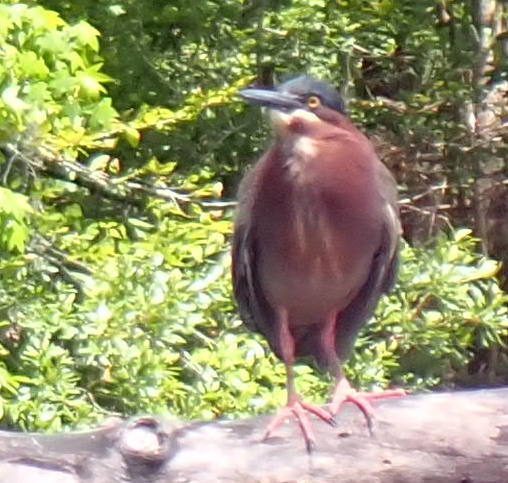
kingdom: Animalia
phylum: Chordata
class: Aves
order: Pelecaniformes
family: Ardeidae
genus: Butorides
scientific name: Butorides virescens
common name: Green heron
